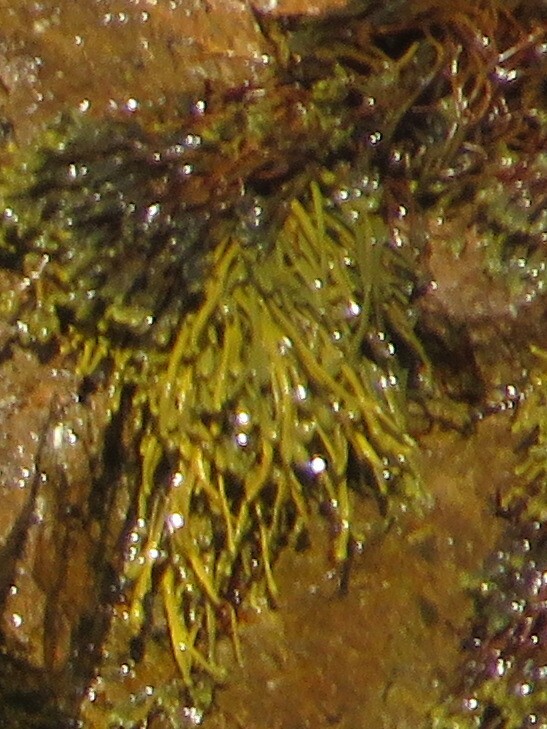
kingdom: Chromista
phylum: Ochrophyta
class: Phaeophyceae
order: Fucales
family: Fucaceae
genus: Ascophyllum
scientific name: Ascophyllum nodosum
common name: Knotted wrack
